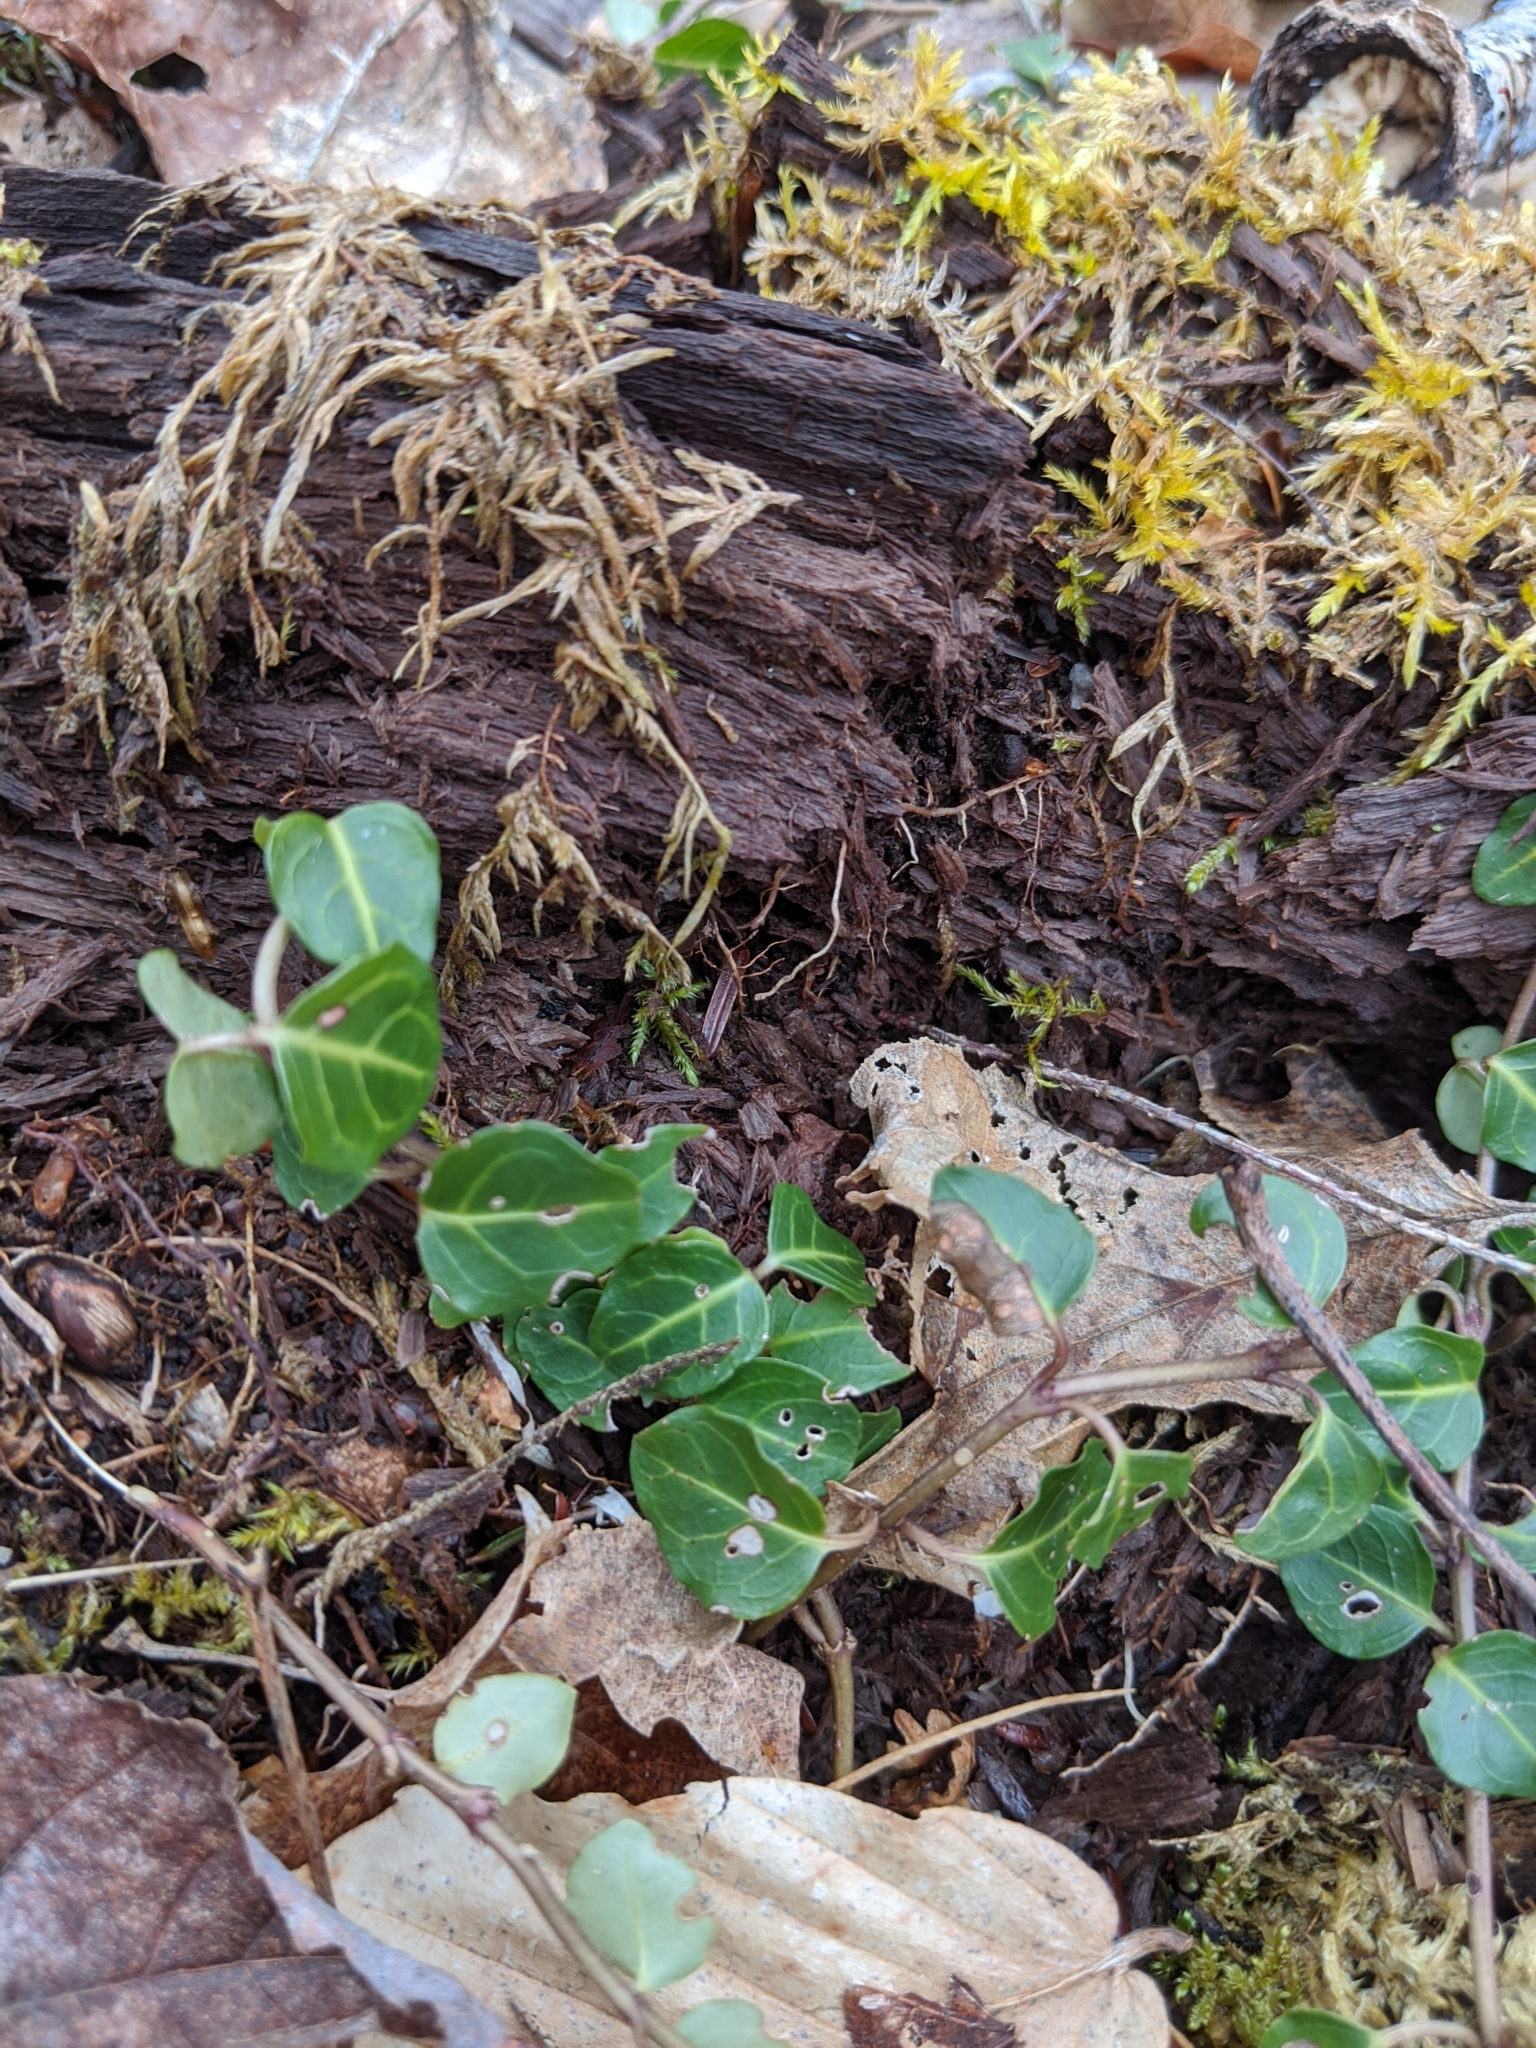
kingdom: Plantae
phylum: Tracheophyta
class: Magnoliopsida
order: Gentianales
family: Rubiaceae
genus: Mitchella
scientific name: Mitchella repens
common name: Partridge-berry
